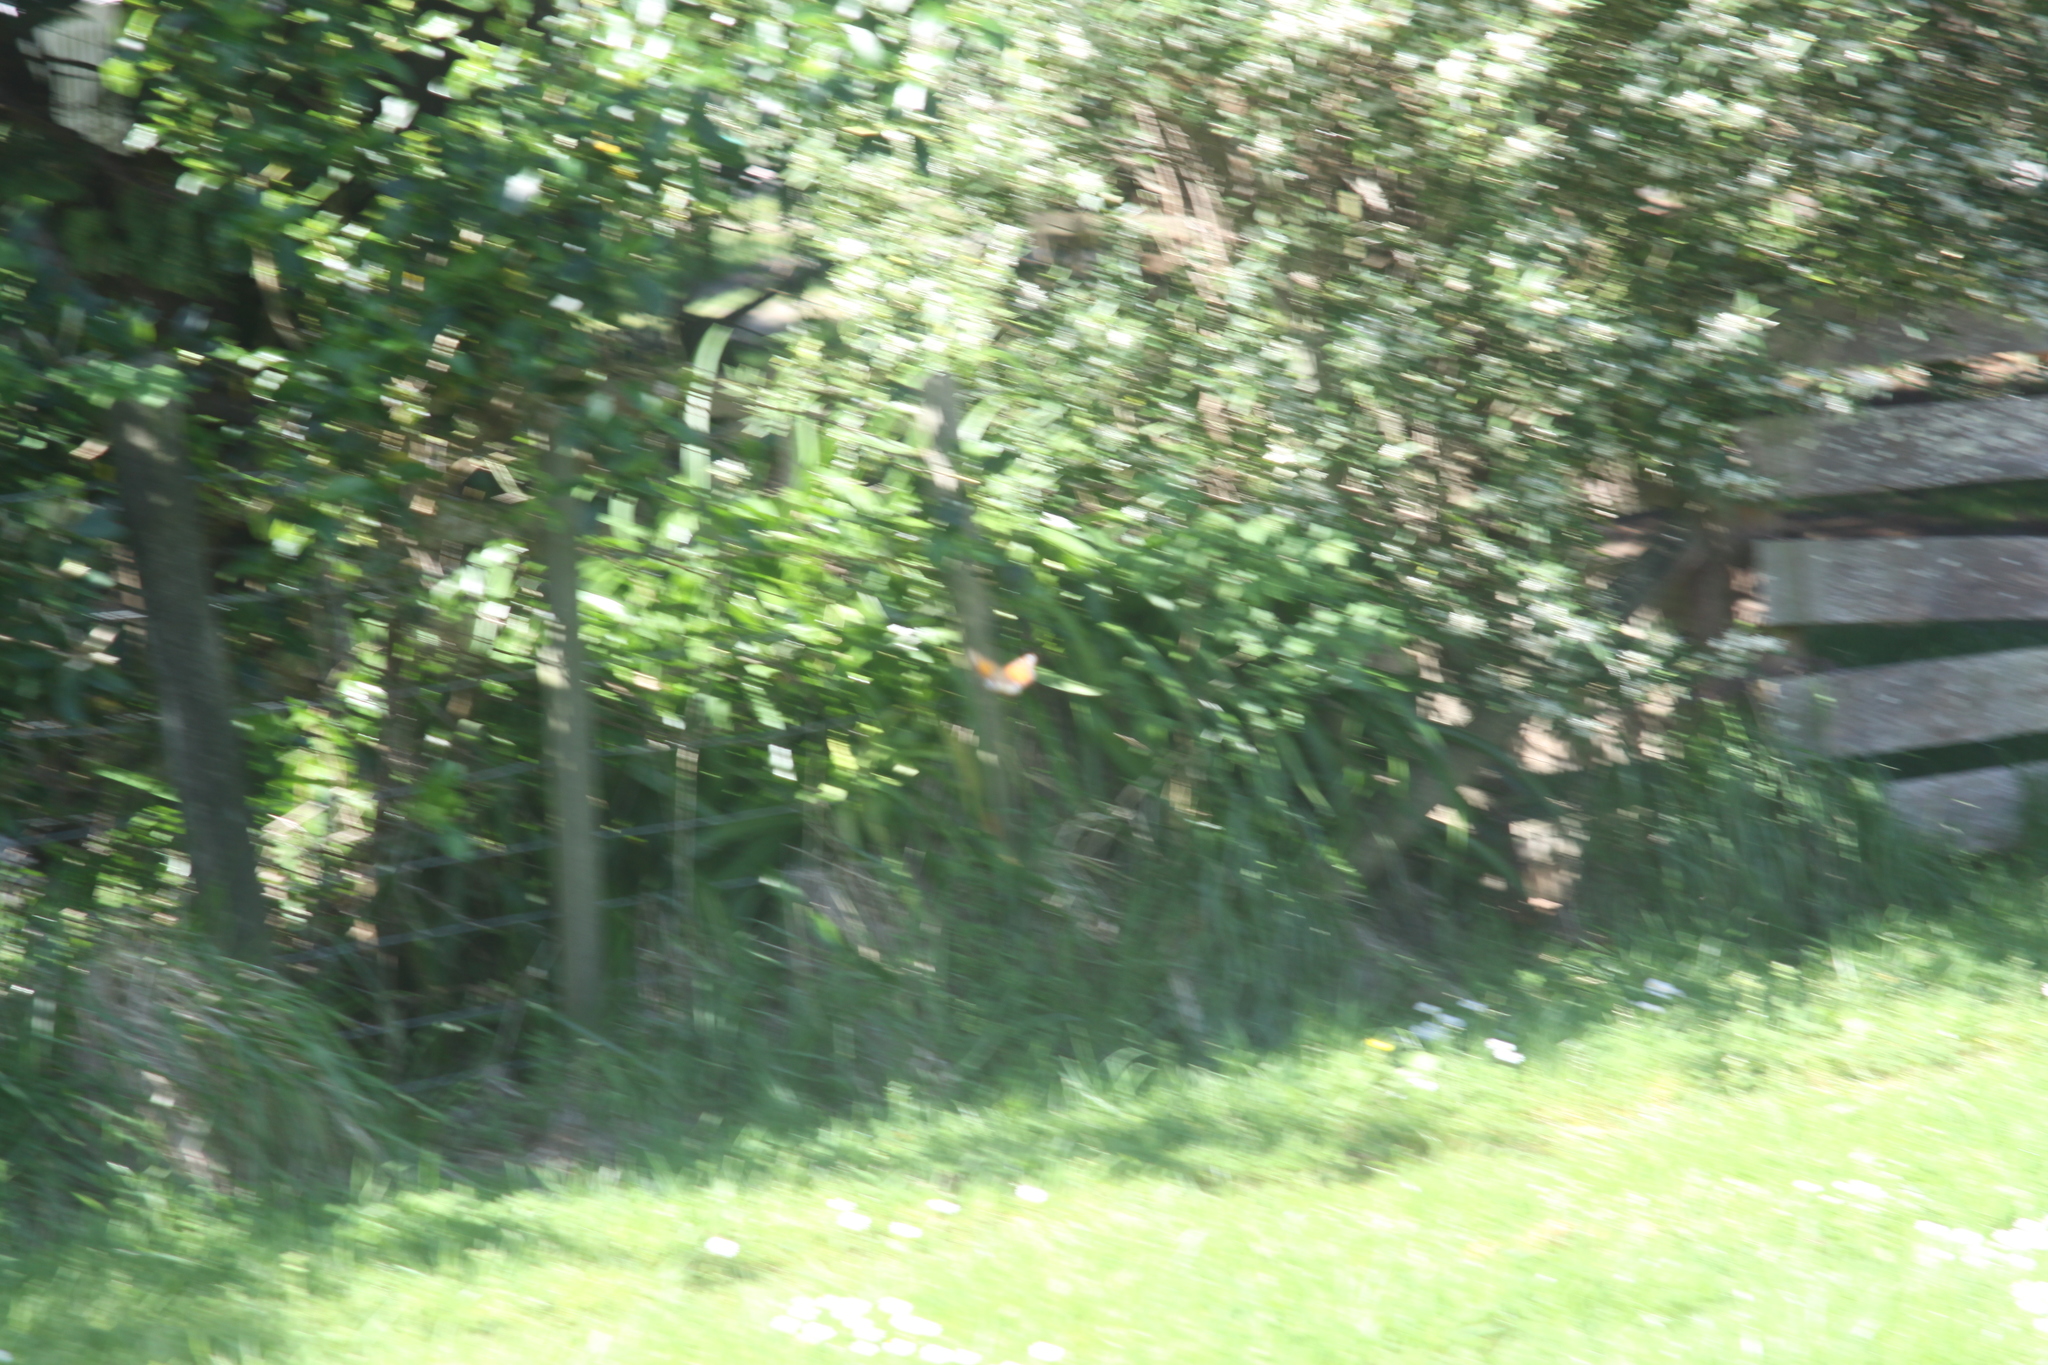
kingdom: Animalia
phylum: Arthropoda
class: Insecta
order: Lepidoptera
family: Nymphalidae
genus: Danaus
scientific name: Danaus plexippus
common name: Monarch
